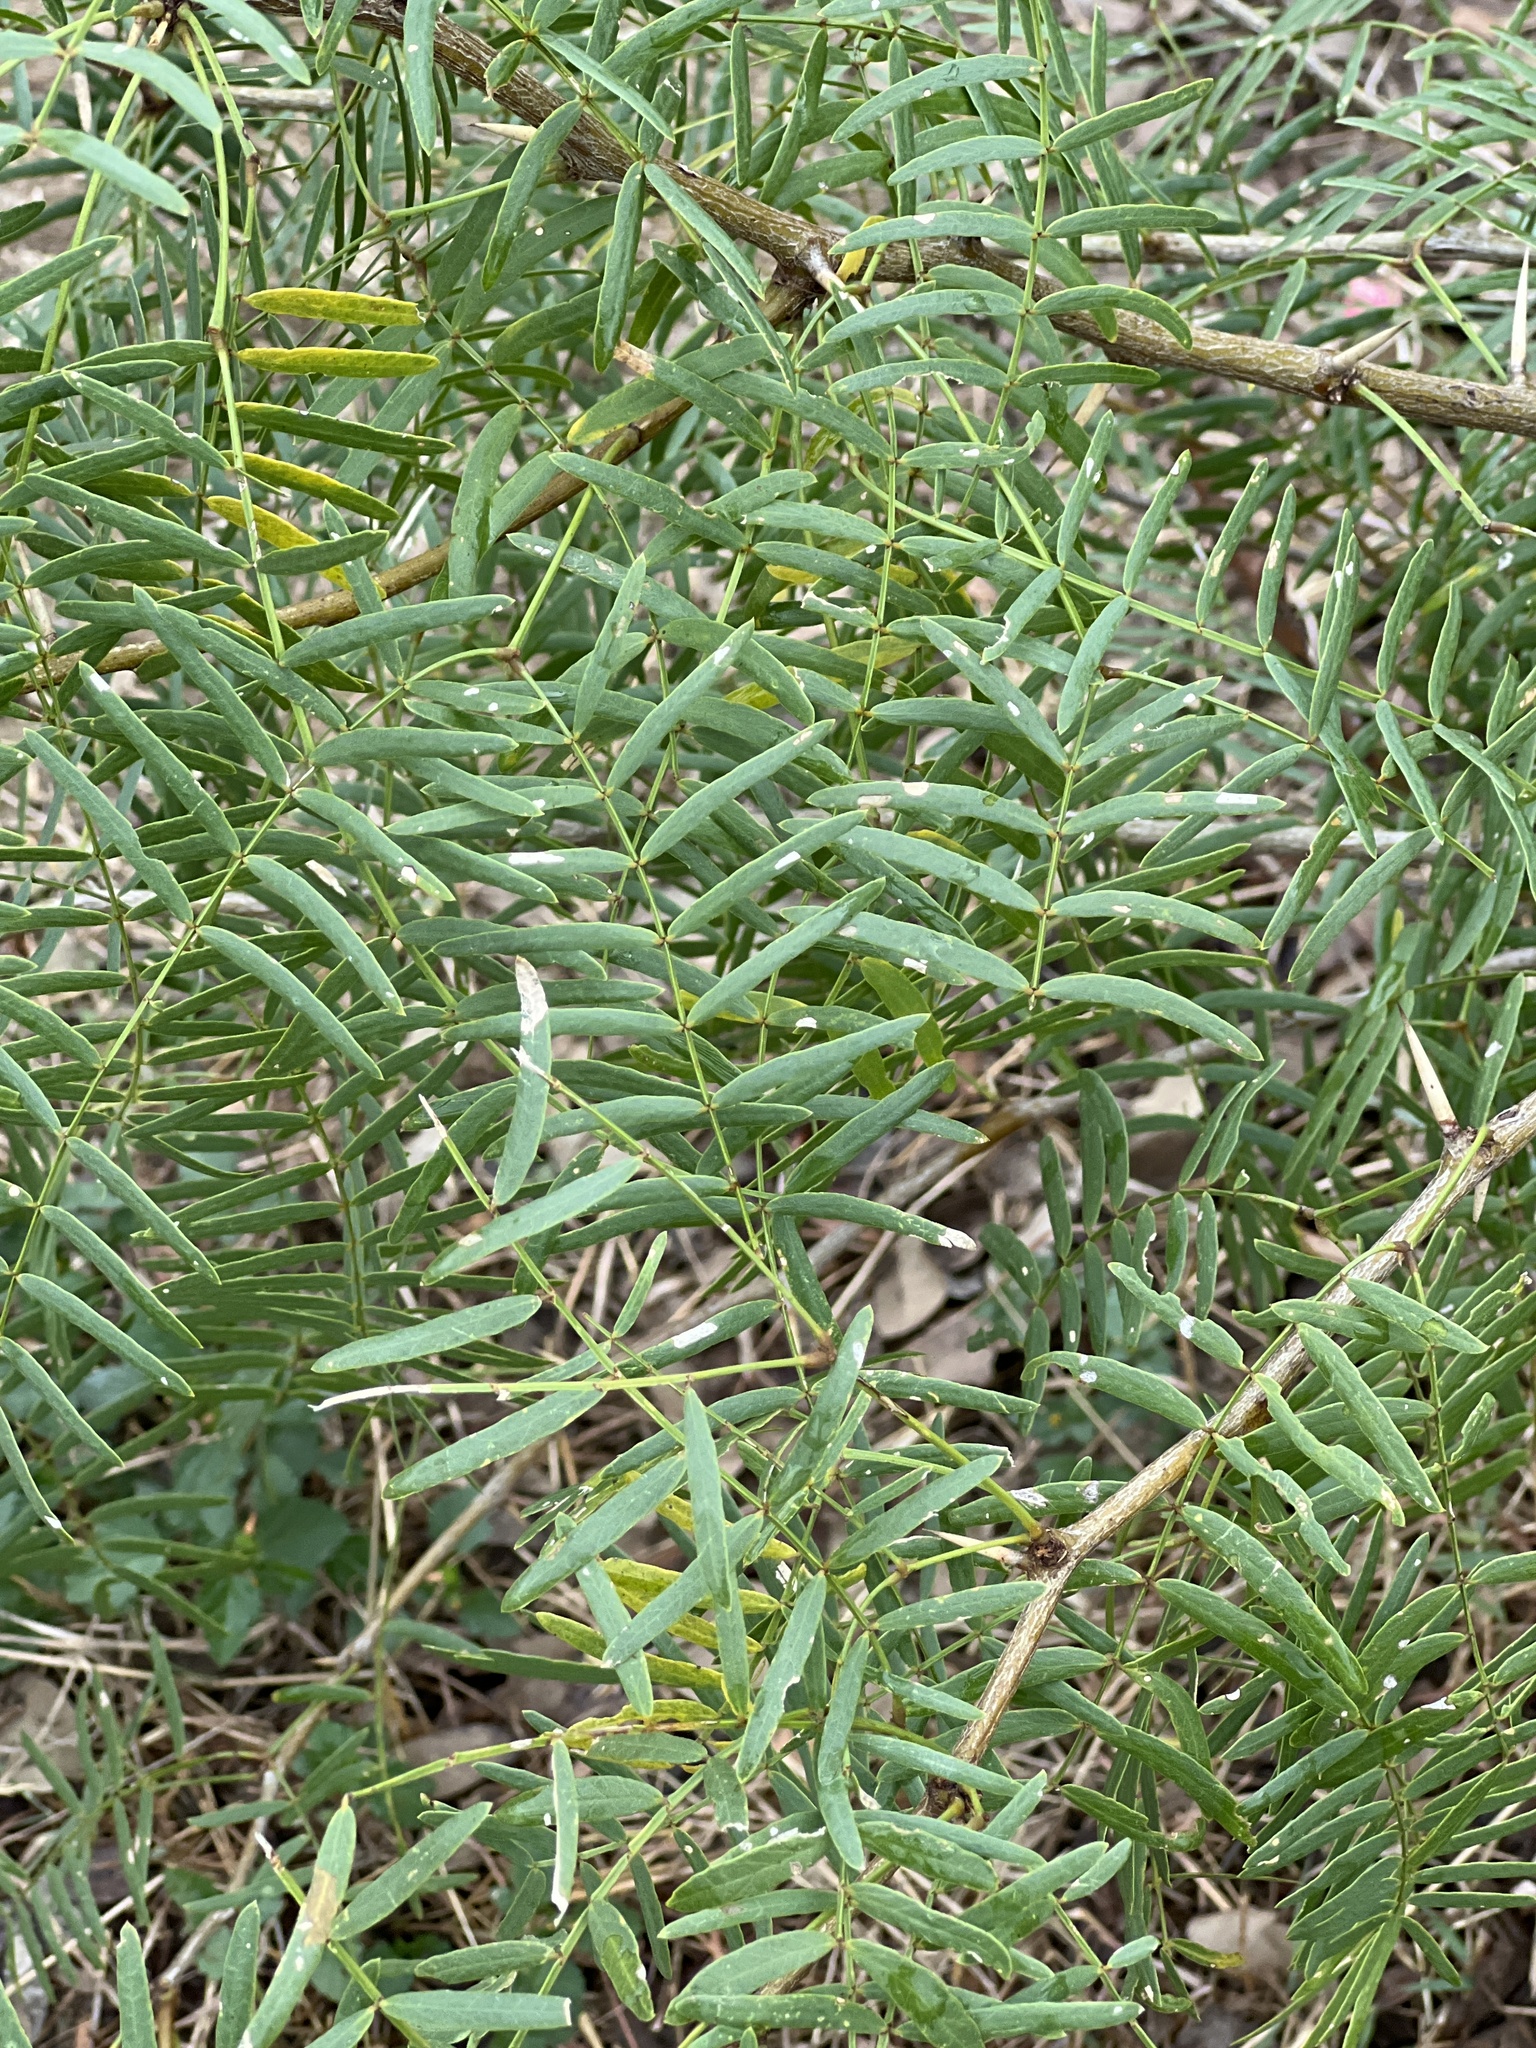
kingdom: Plantae
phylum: Tracheophyta
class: Magnoliopsida
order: Fabales
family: Fabaceae
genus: Prosopis
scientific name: Prosopis glandulosa
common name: Honey mesquite
